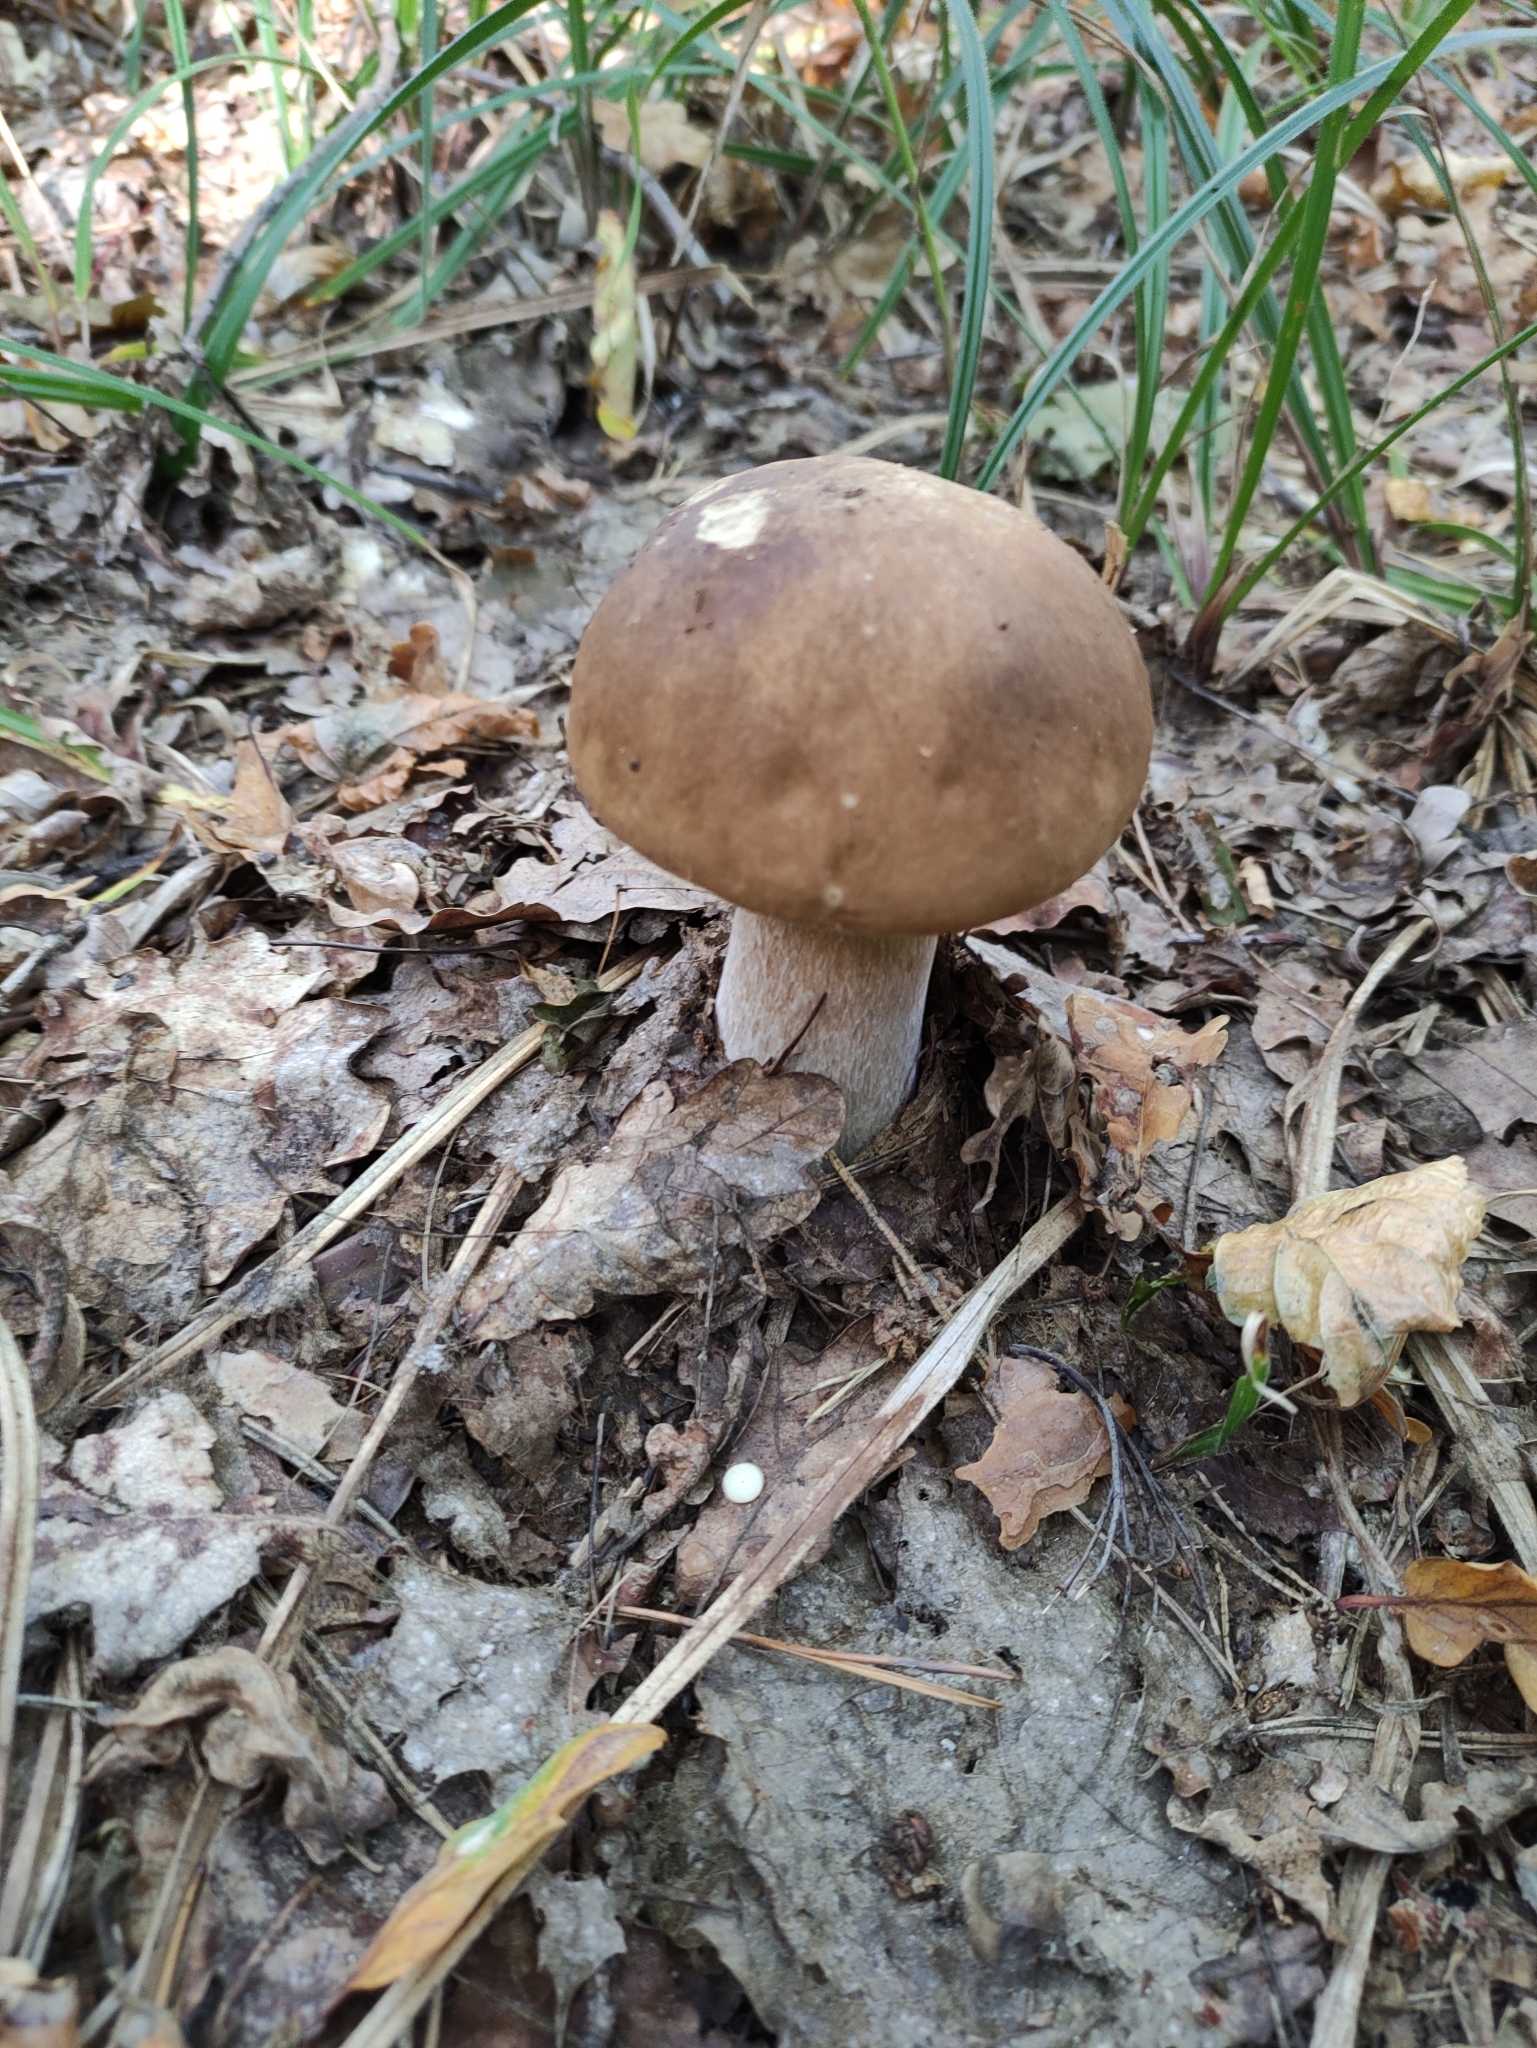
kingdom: Fungi
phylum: Basidiomycota
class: Agaricomycetes
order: Boletales
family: Boletaceae
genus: Boletus
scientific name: Boletus edulis
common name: Cep
